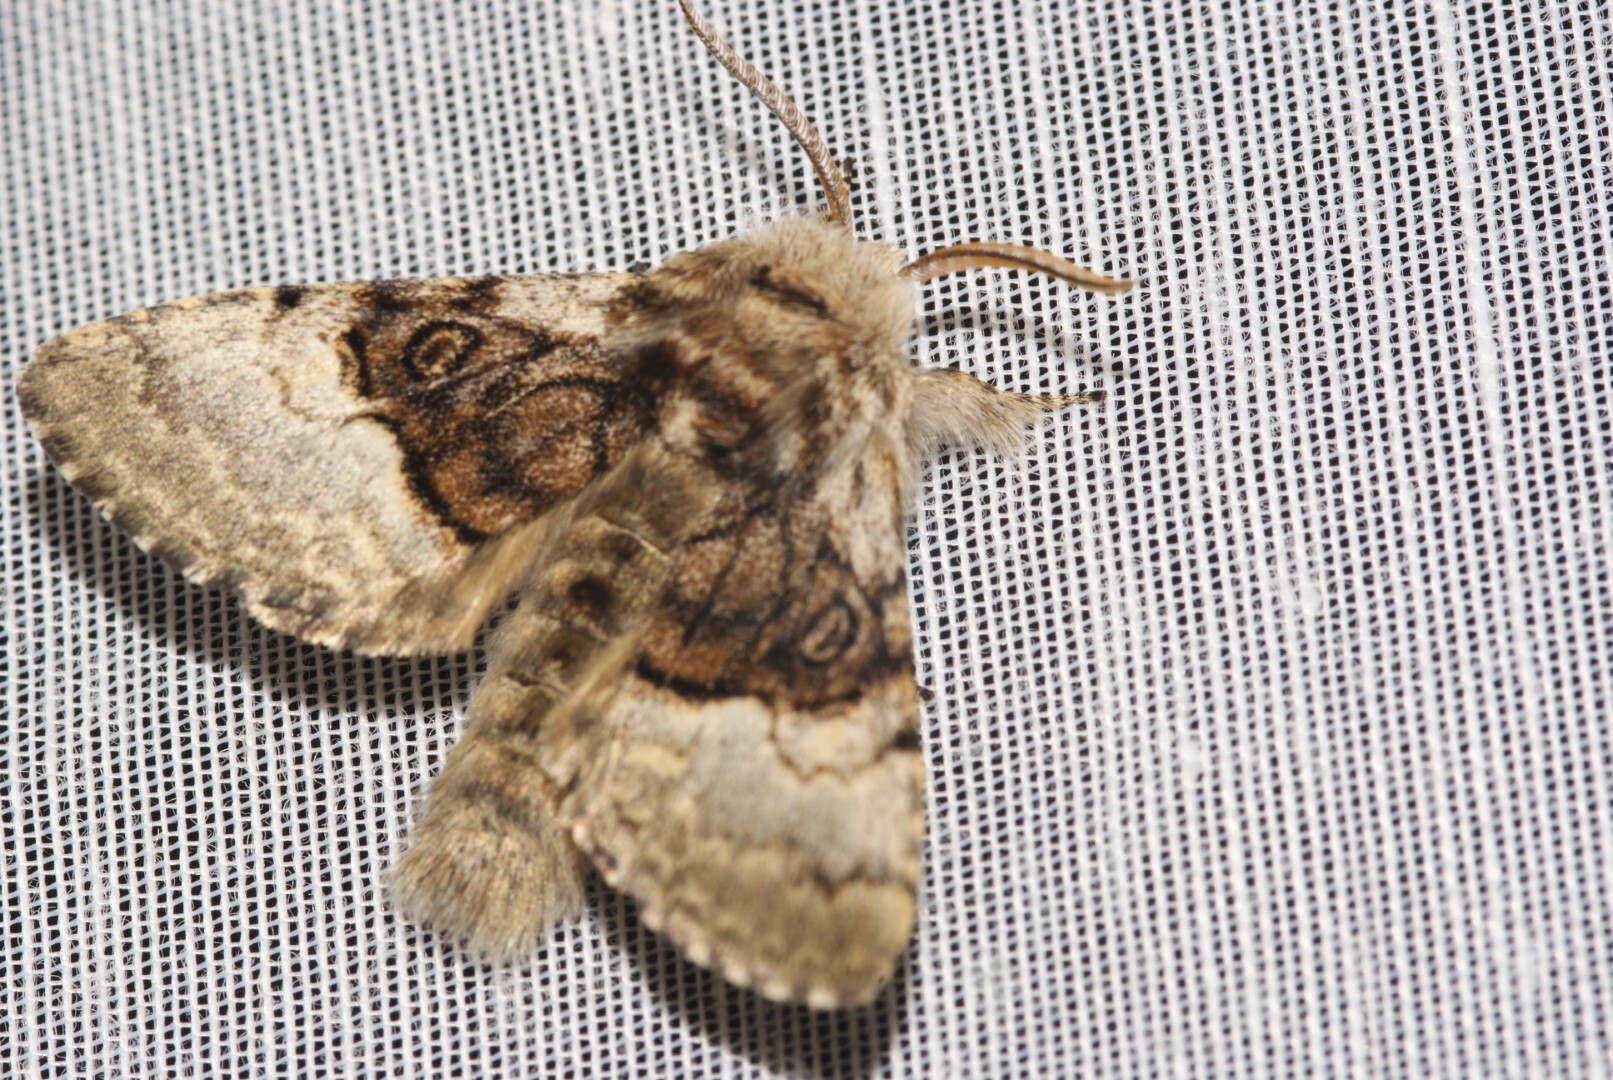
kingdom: Animalia
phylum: Arthropoda
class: Insecta
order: Lepidoptera
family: Noctuidae
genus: Colocasia
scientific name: Colocasia coryli
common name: Nut-tree tussock
